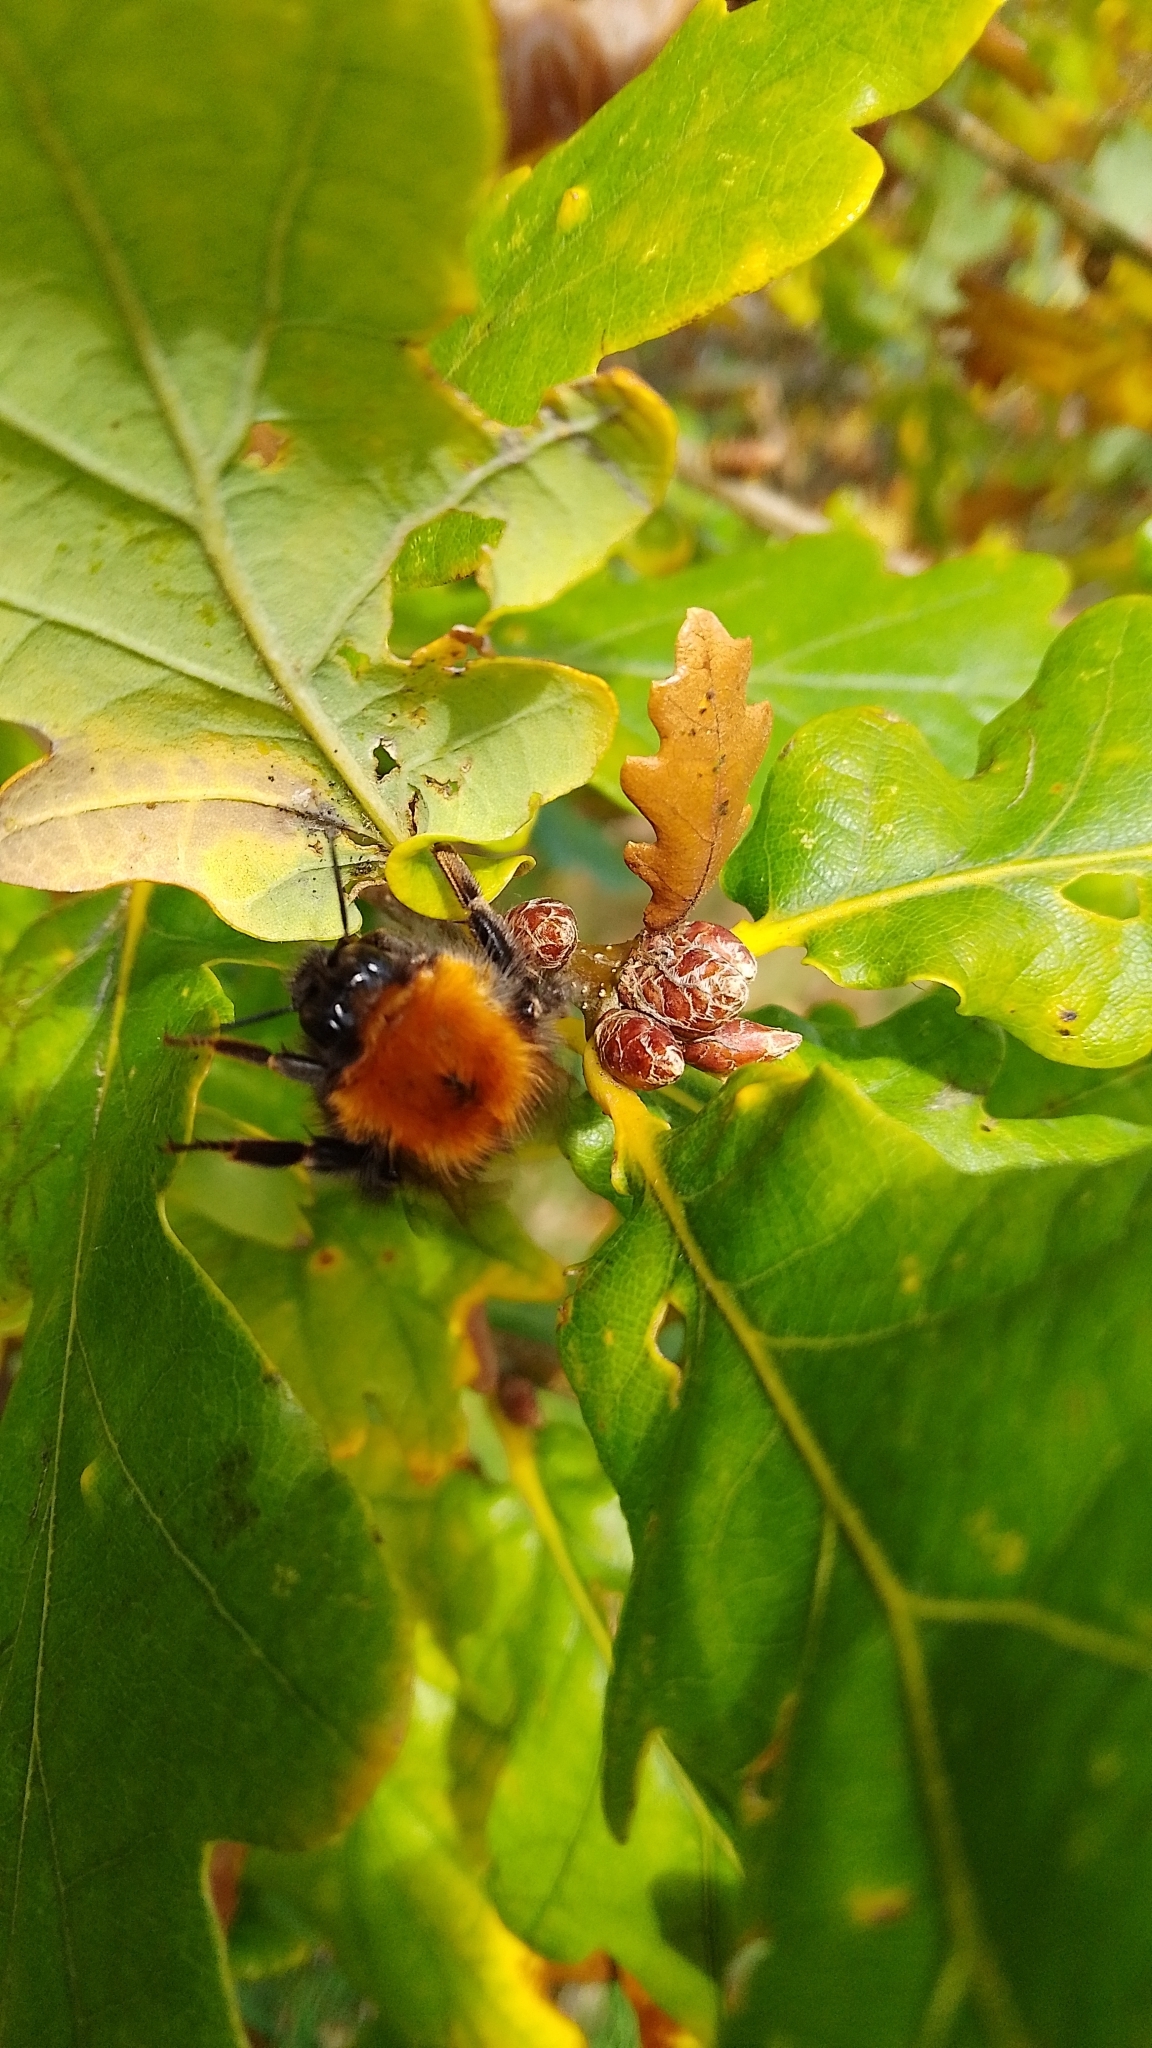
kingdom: Animalia
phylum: Arthropoda
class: Insecta
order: Hymenoptera
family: Apidae
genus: Bombus
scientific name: Bombus hypnorum
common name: New garden bumblebee
